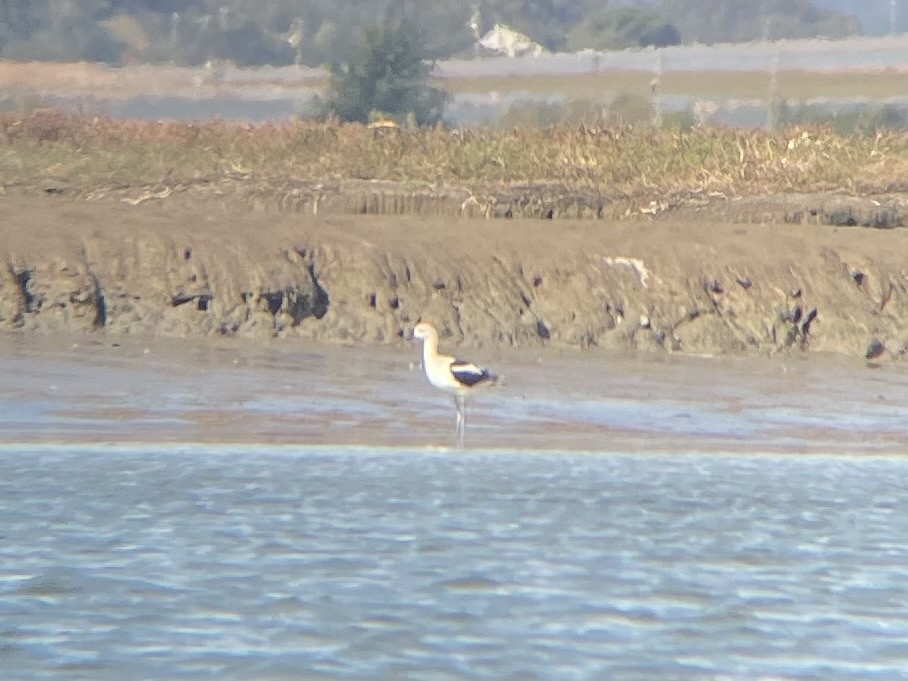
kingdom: Animalia
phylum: Chordata
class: Aves
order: Charadriiformes
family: Recurvirostridae
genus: Recurvirostra
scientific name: Recurvirostra americana
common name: American avocet
